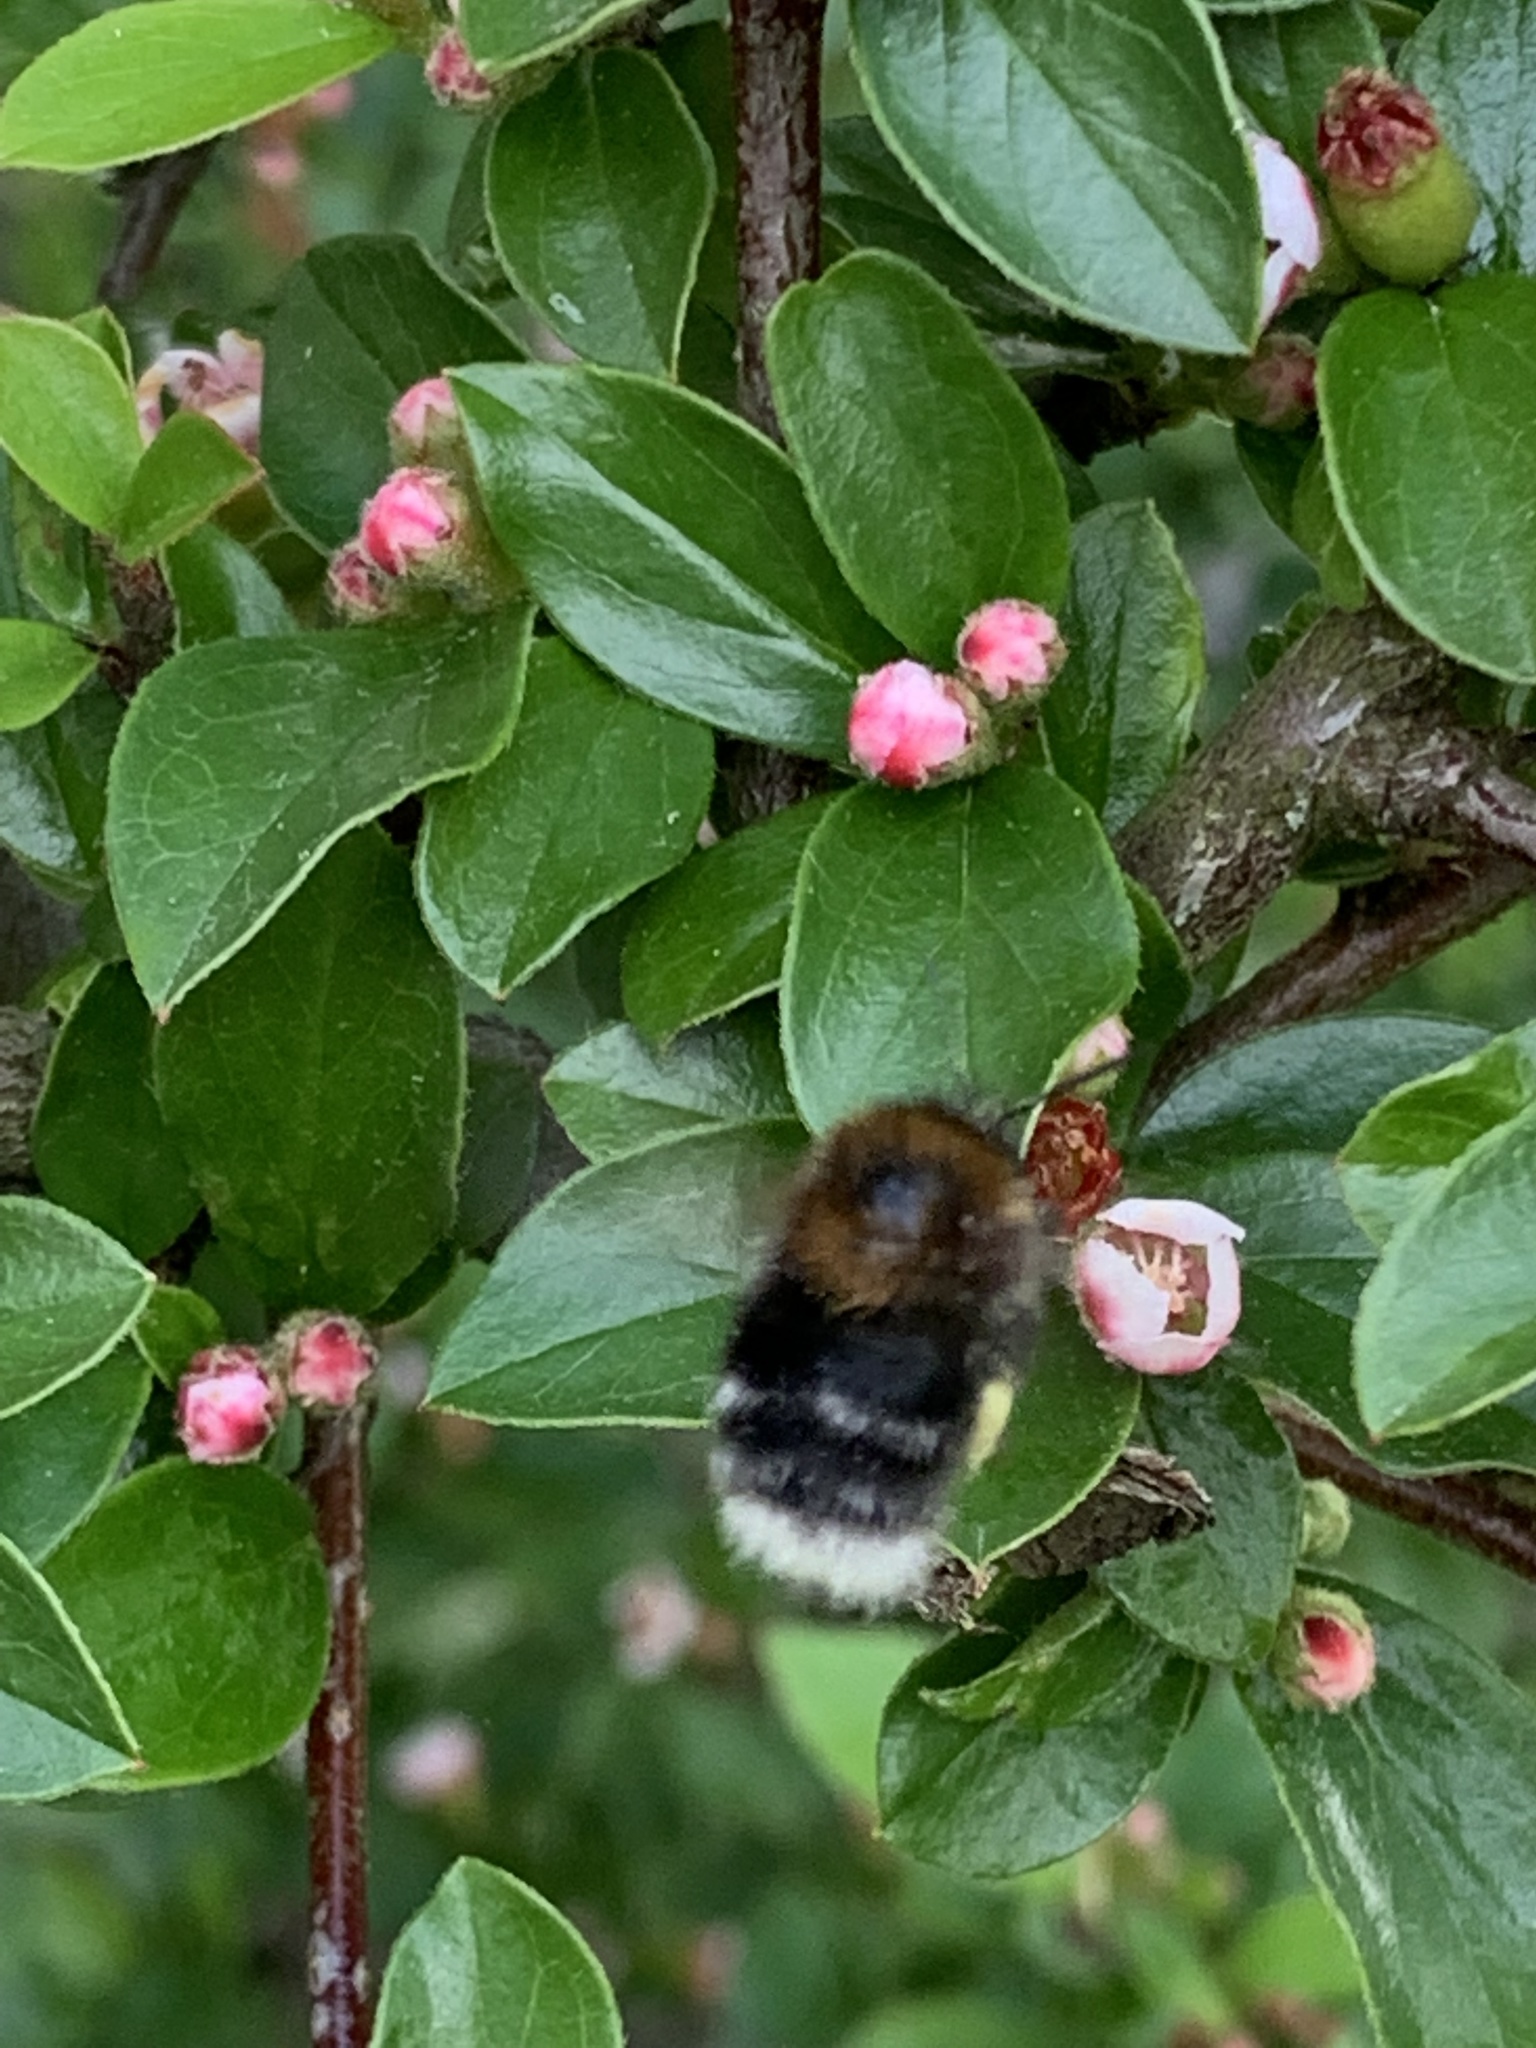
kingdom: Animalia
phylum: Arthropoda
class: Insecta
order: Hymenoptera
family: Apidae
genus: Bombus
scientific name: Bombus hypnorum
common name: New garden bumblebee
